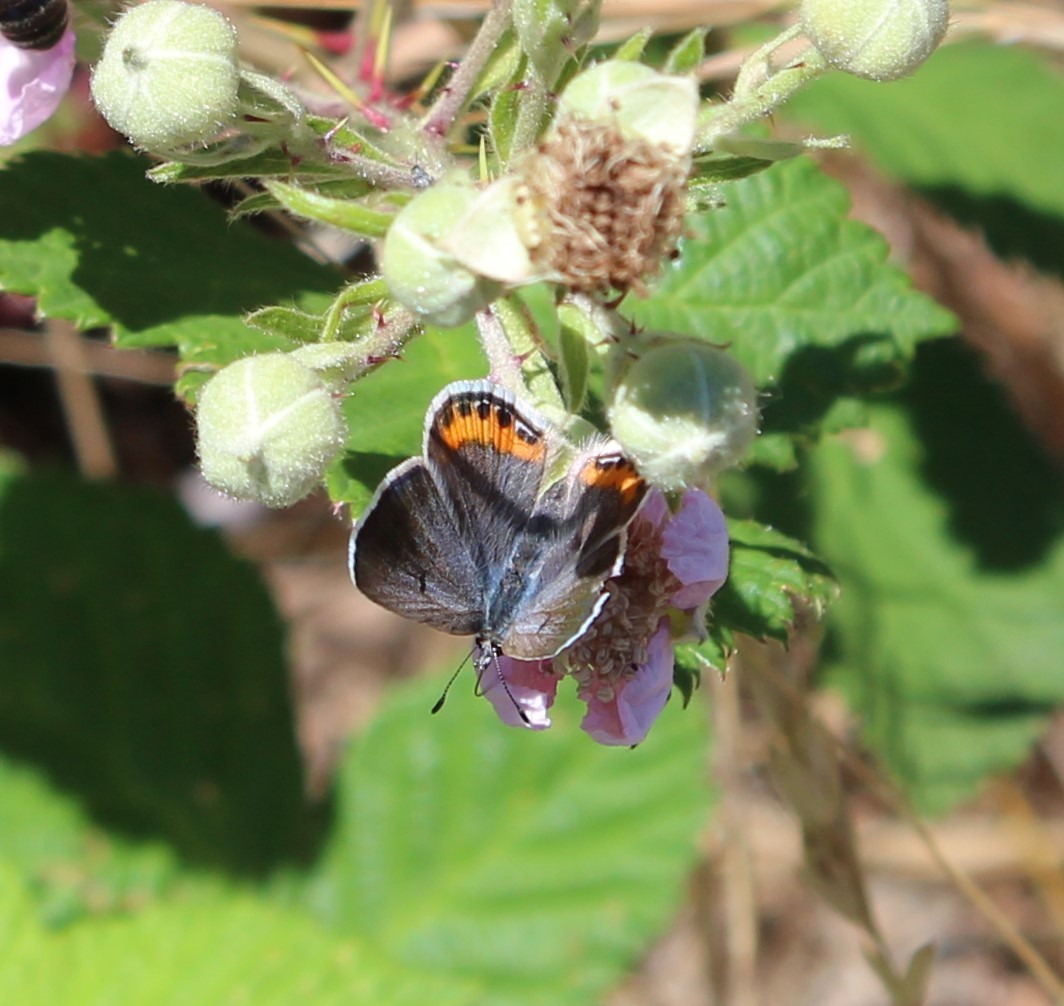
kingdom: Animalia
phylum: Arthropoda
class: Insecta
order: Lepidoptera
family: Lycaenidae
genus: Icaricia
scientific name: Icaricia acmon
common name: Acmon blue
